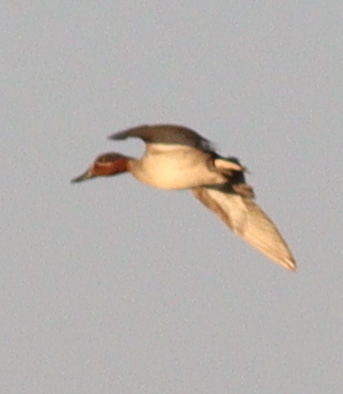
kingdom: Animalia
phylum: Chordata
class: Aves
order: Anseriformes
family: Anatidae
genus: Anas
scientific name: Anas crecca
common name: Eurasian teal
